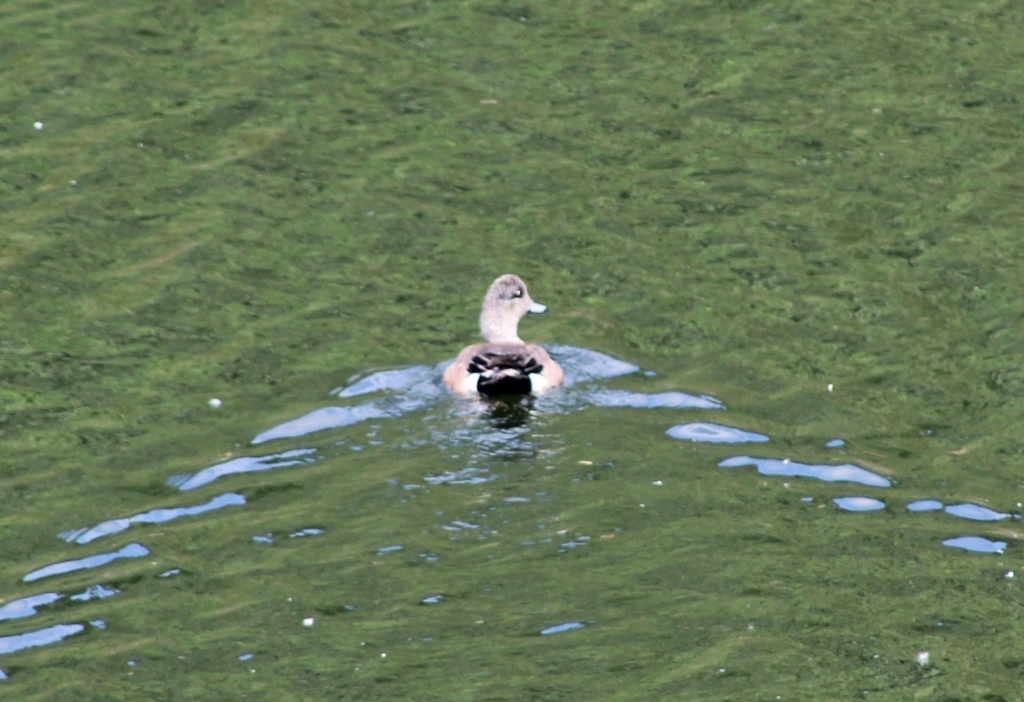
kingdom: Animalia
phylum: Chordata
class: Aves
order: Anseriformes
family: Anatidae
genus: Mareca
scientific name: Mareca americana
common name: American wigeon
